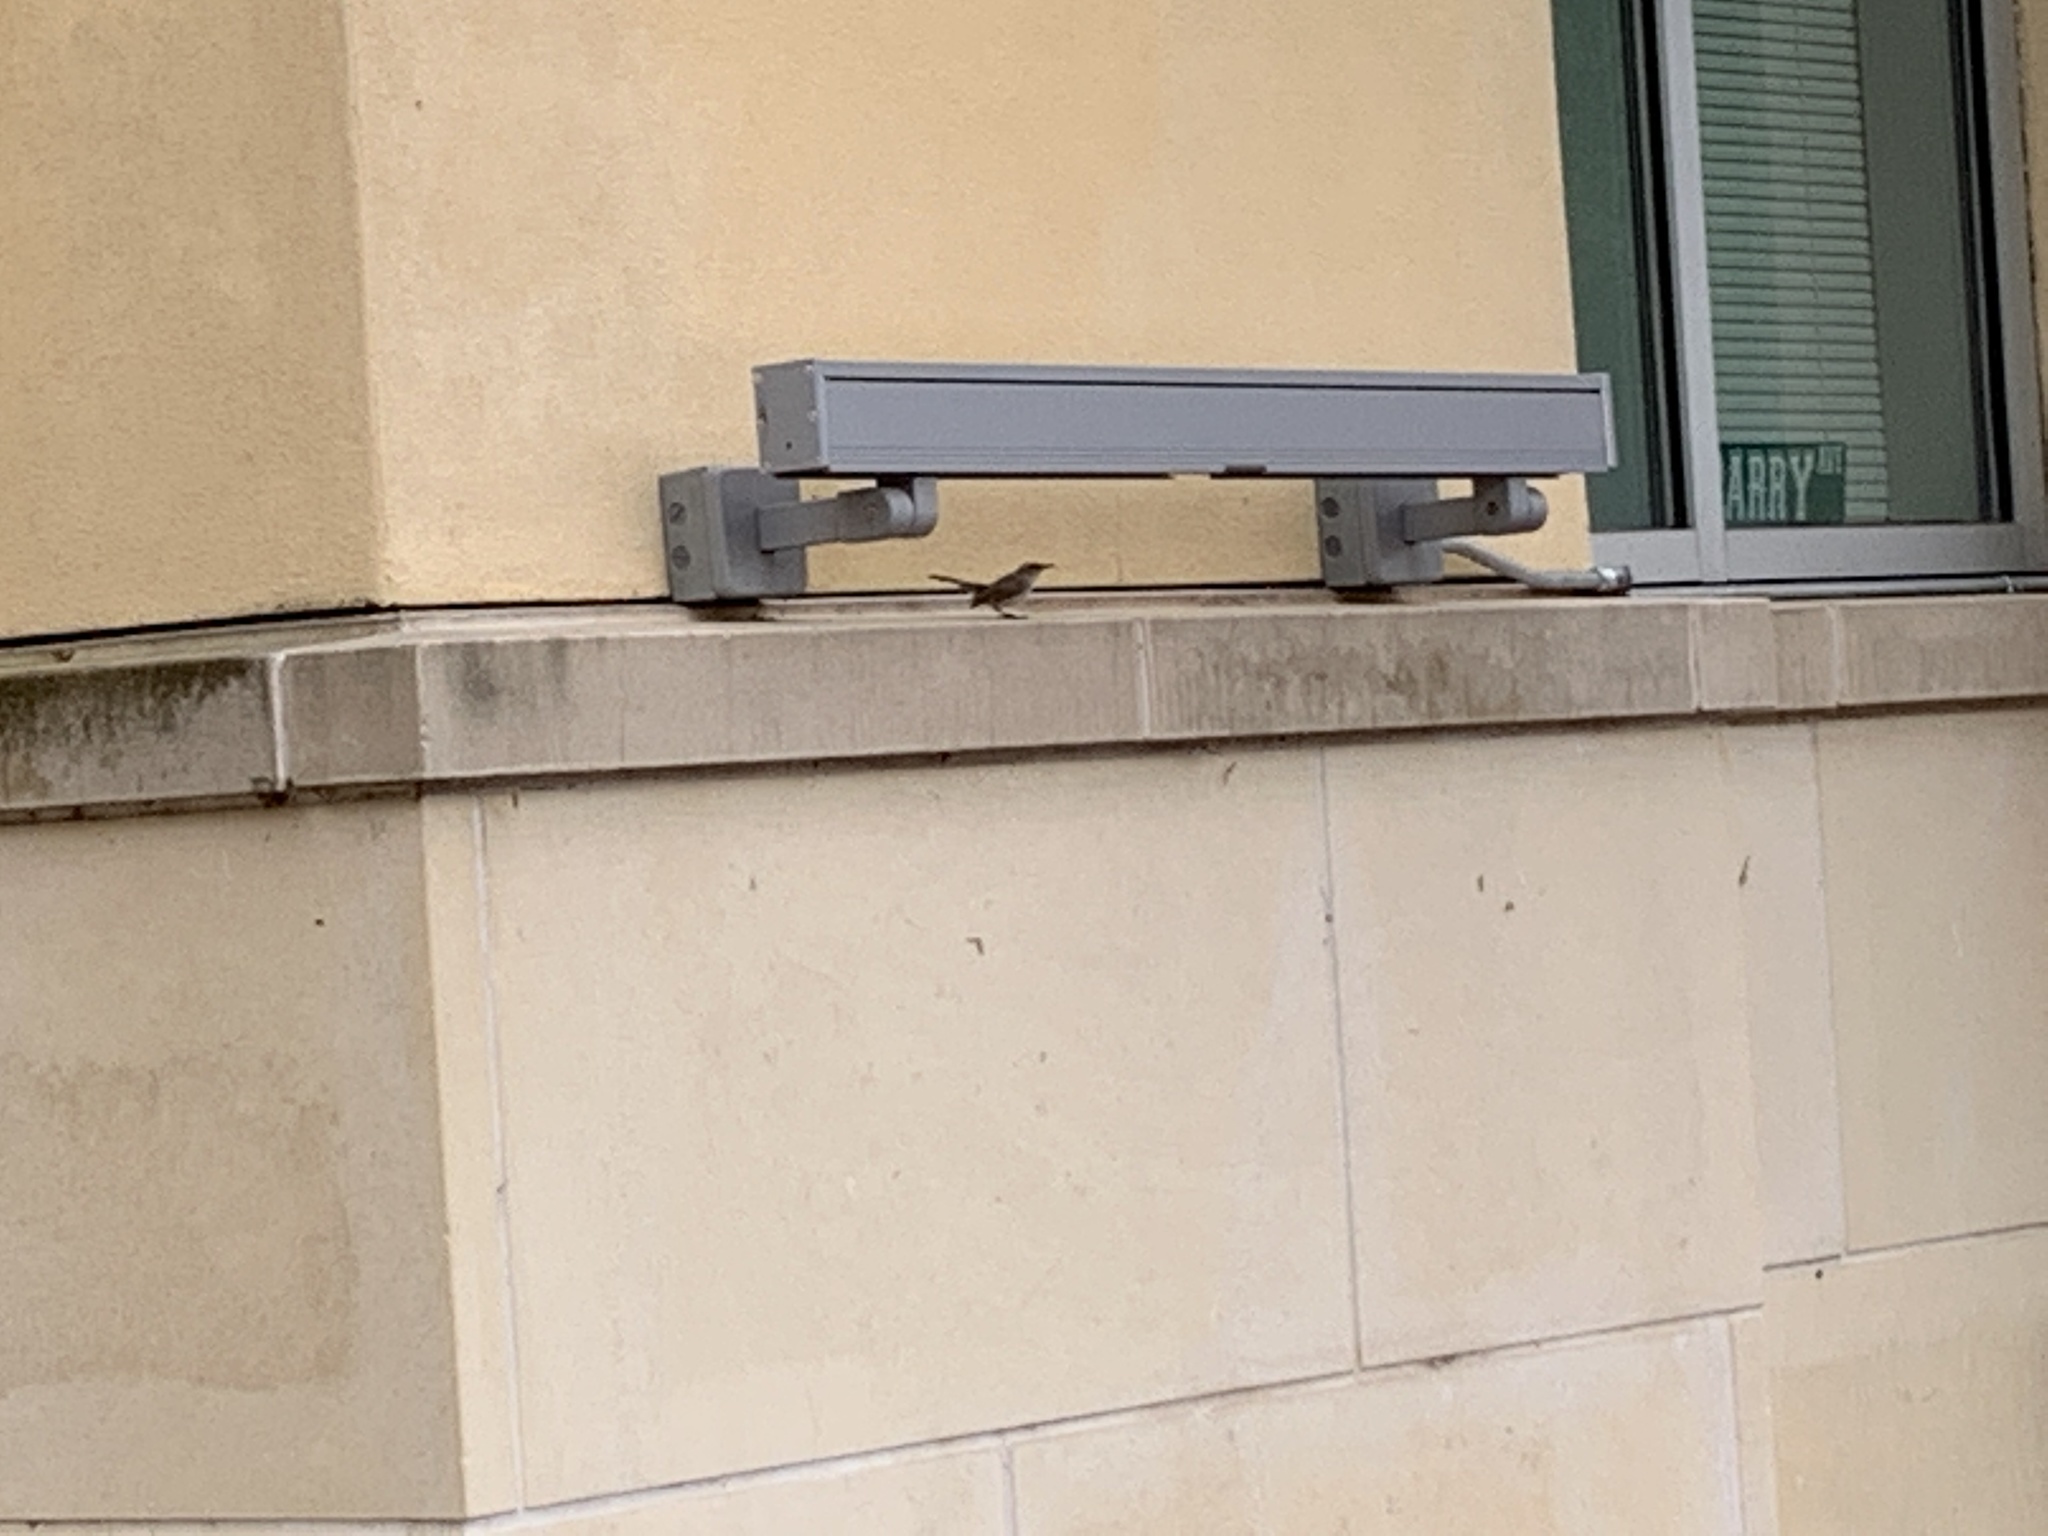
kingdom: Animalia
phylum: Chordata
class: Aves
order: Passeriformes
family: Troglodytidae
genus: Thryomanes
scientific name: Thryomanes bewickii
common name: Bewick's wren
